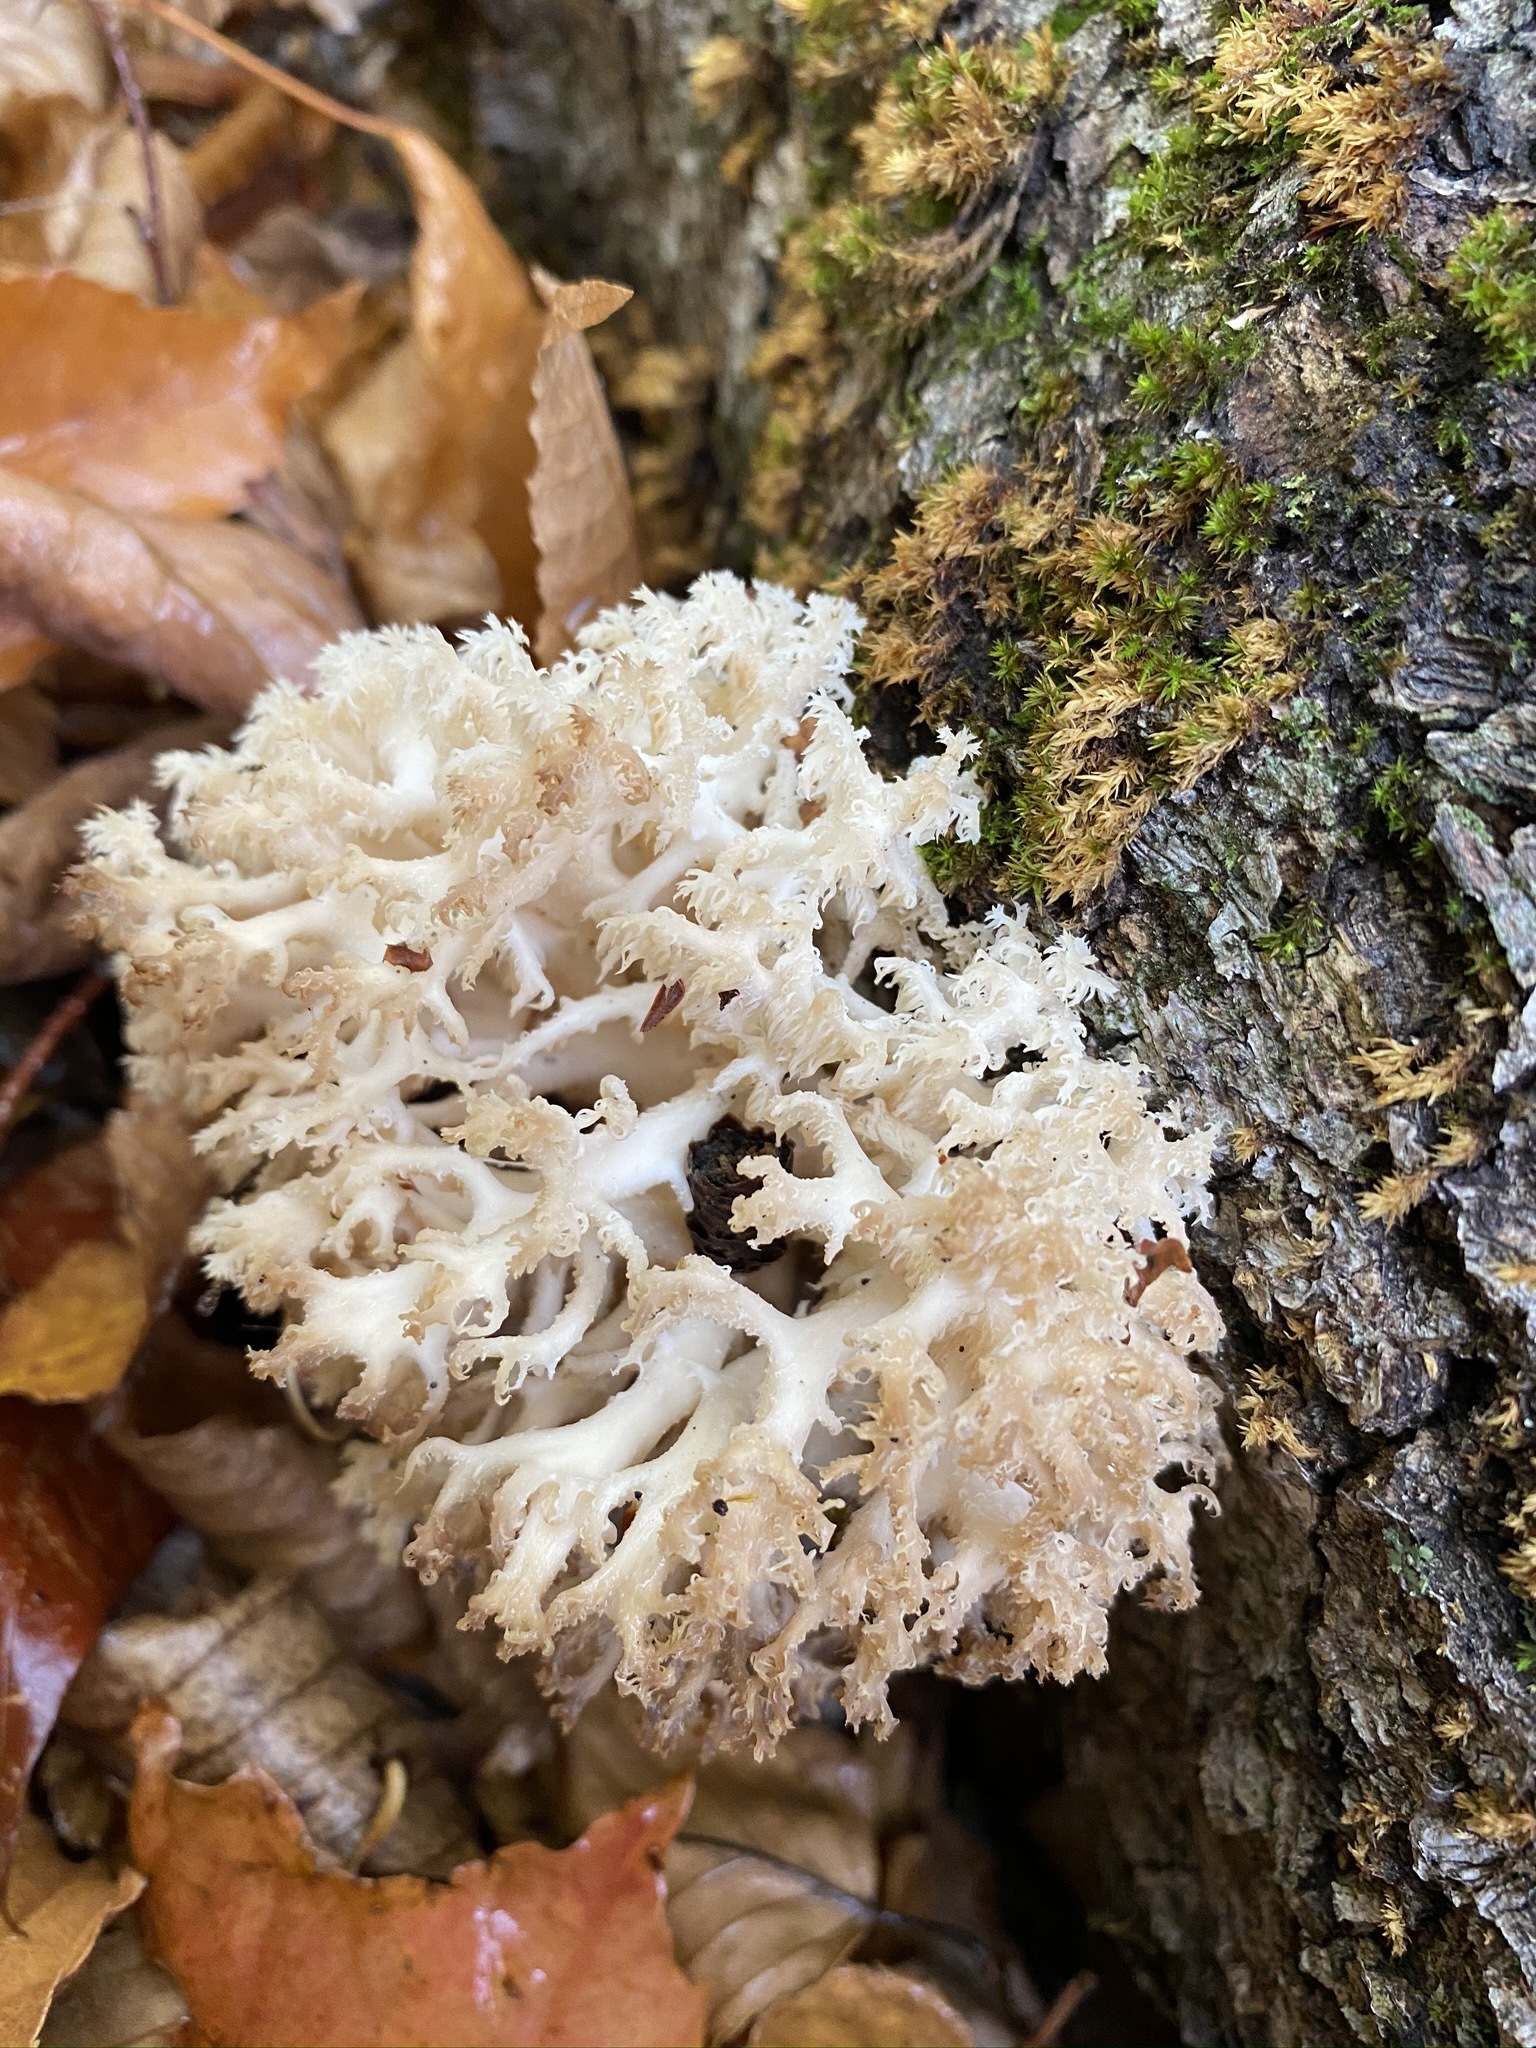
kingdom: Fungi
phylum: Basidiomycota
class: Agaricomycetes
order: Russulales
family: Hericiaceae
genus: Hericium
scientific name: Hericium coralloides
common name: Coral tooth
